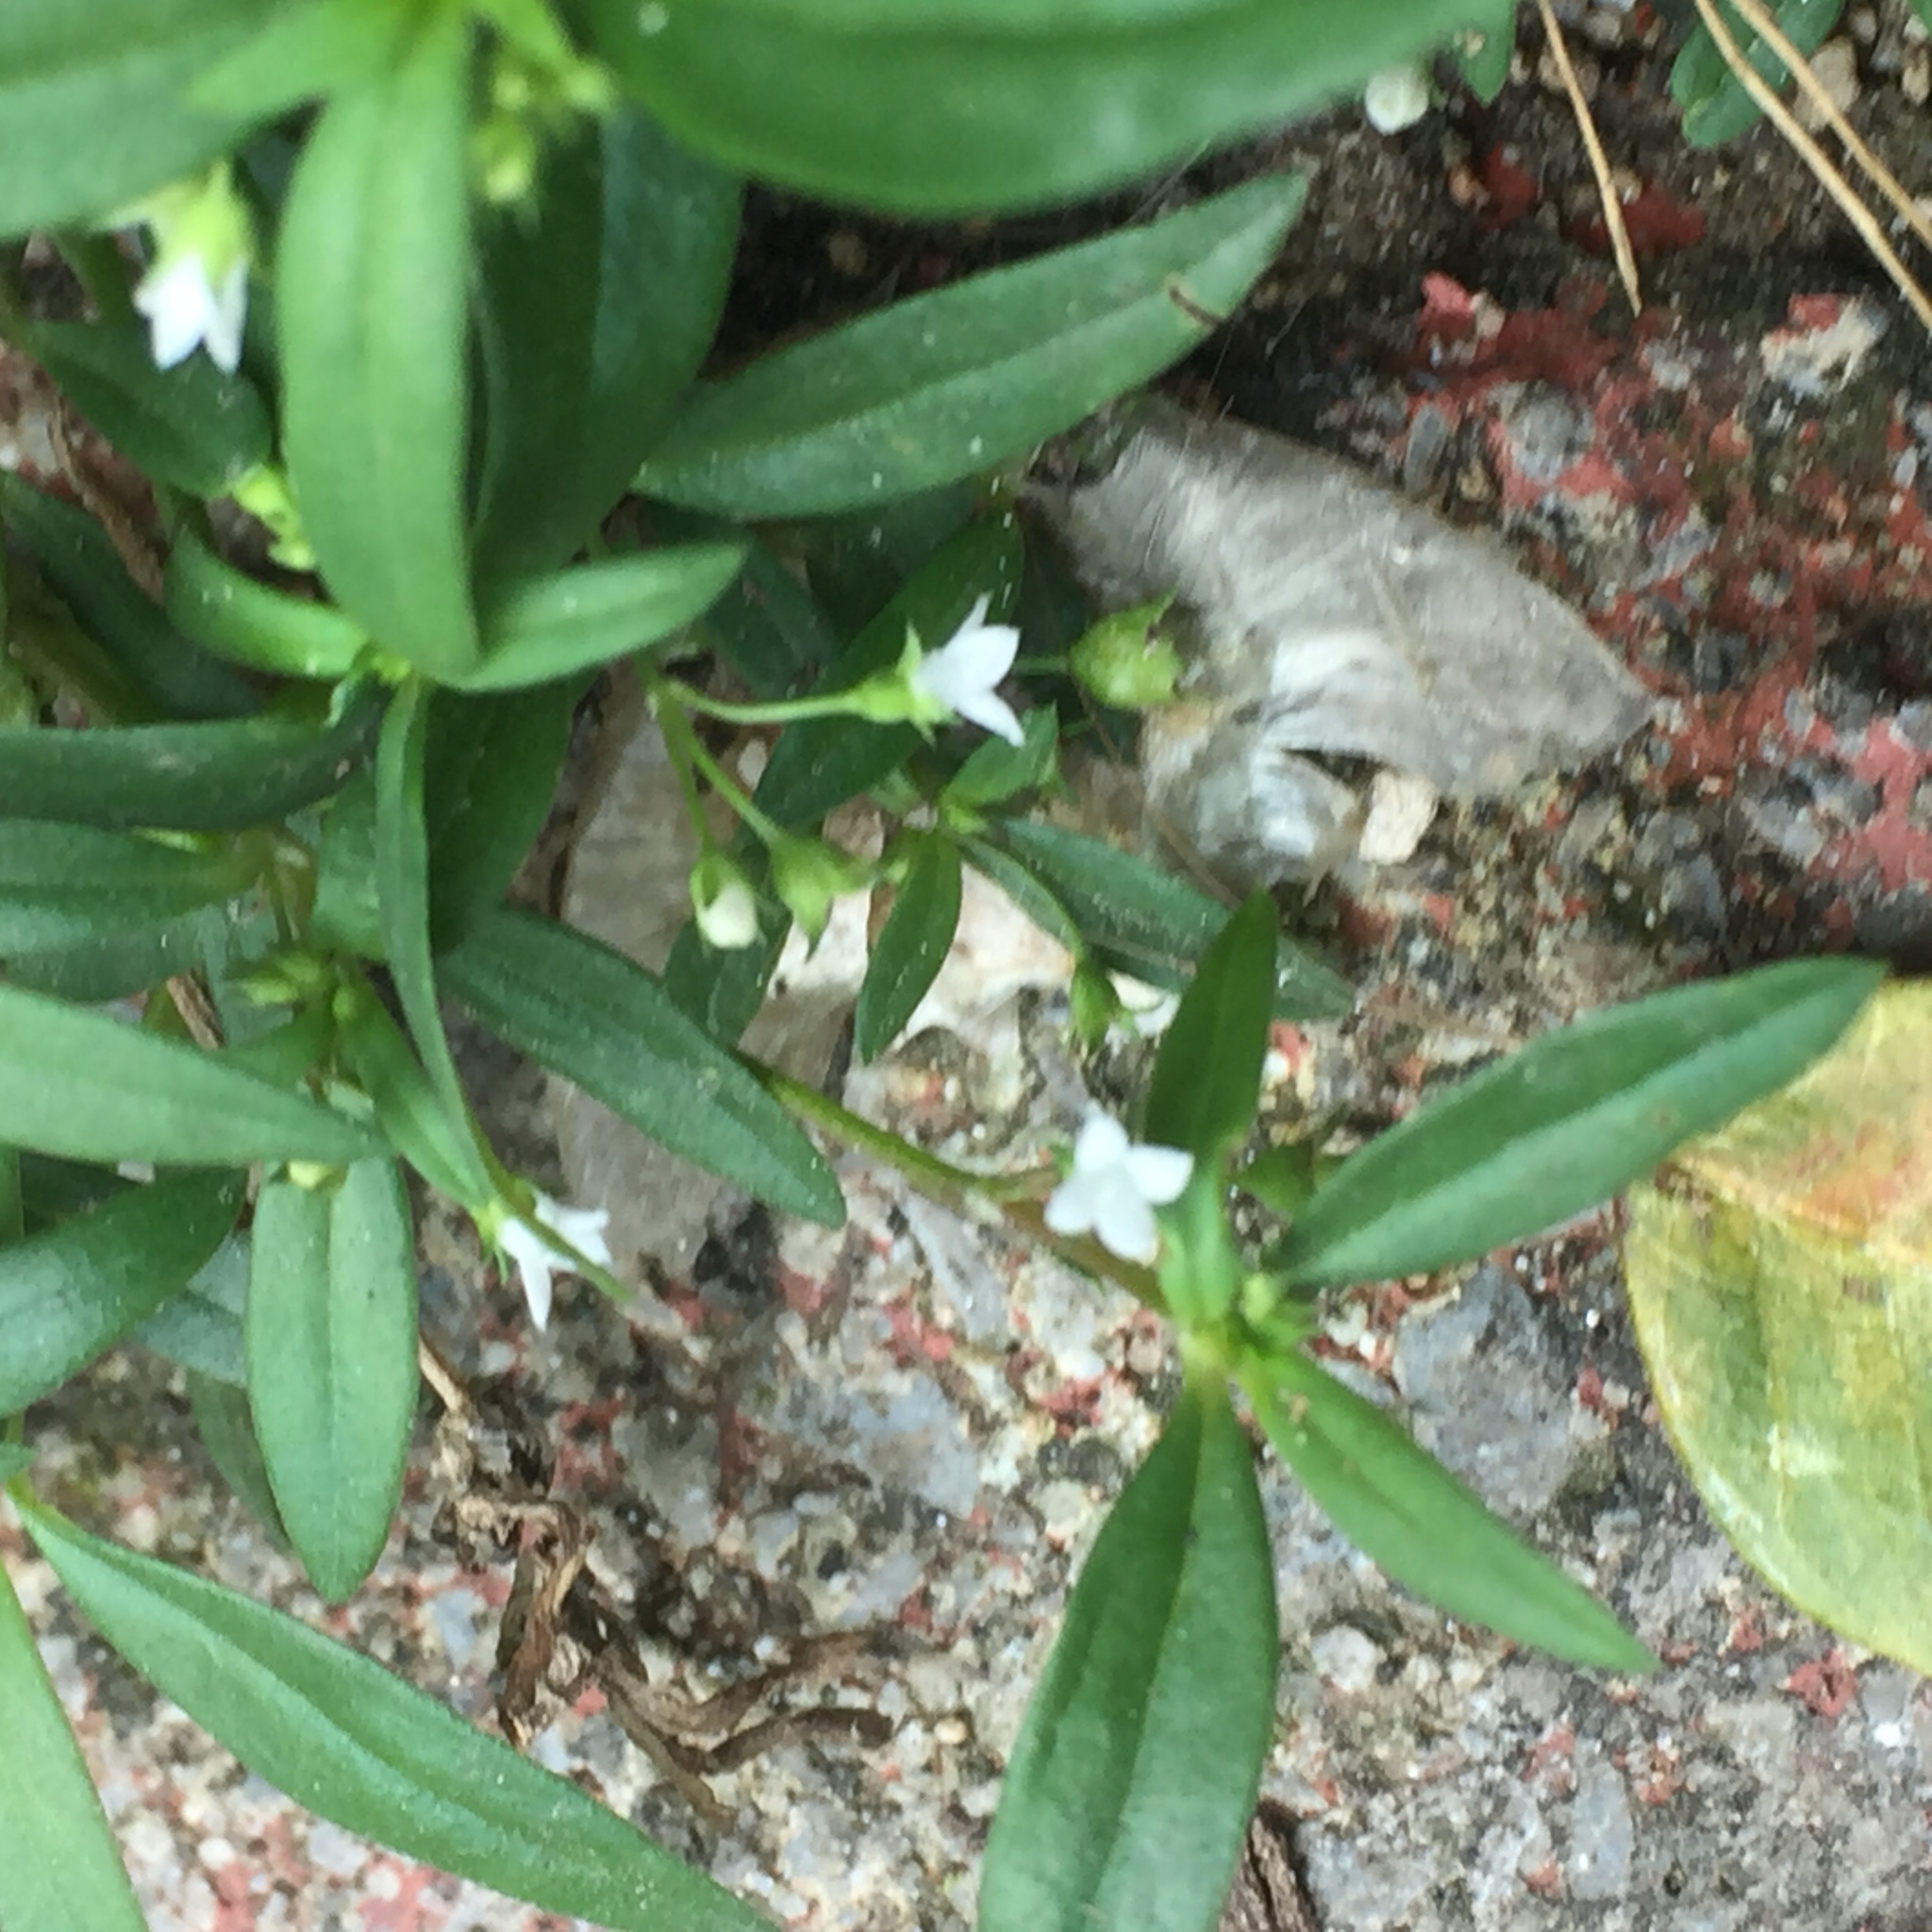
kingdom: Plantae
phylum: Tracheophyta
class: Magnoliopsida
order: Gentianales
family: Rubiaceae
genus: Oldenlandia
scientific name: Oldenlandia corymbosa
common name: Flat-top mille graines
